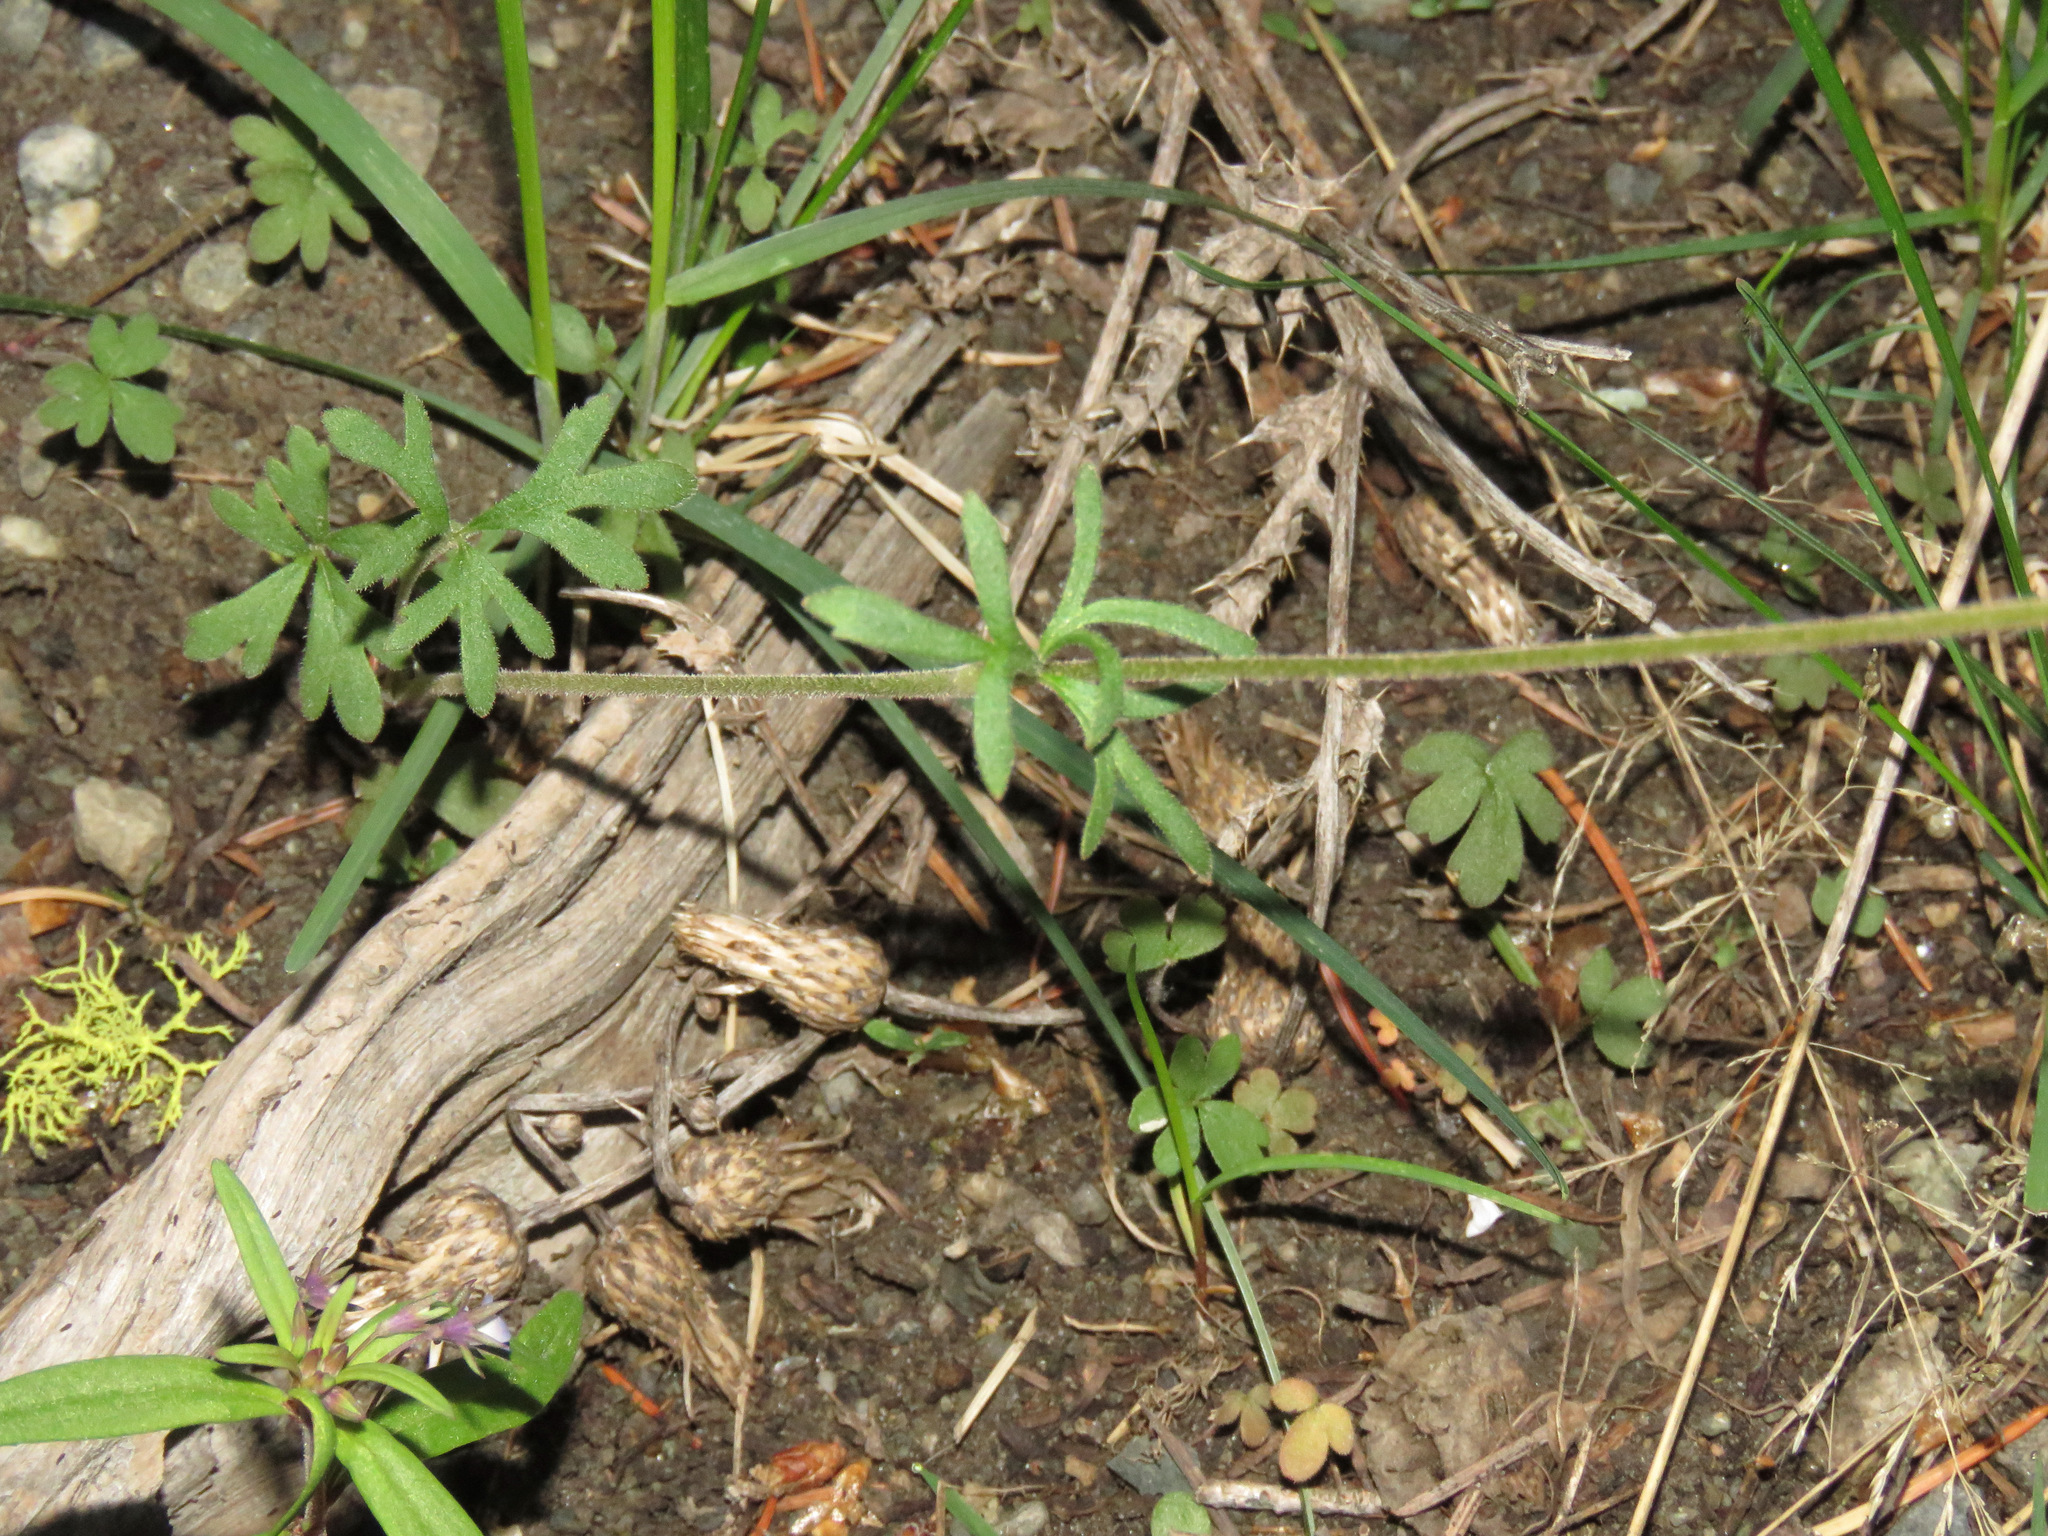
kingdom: Plantae
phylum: Tracheophyta
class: Magnoliopsida
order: Saxifragales
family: Saxifragaceae
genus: Lithophragma
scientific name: Lithophragma parviflorum
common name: Small-flowered fringe-cup
